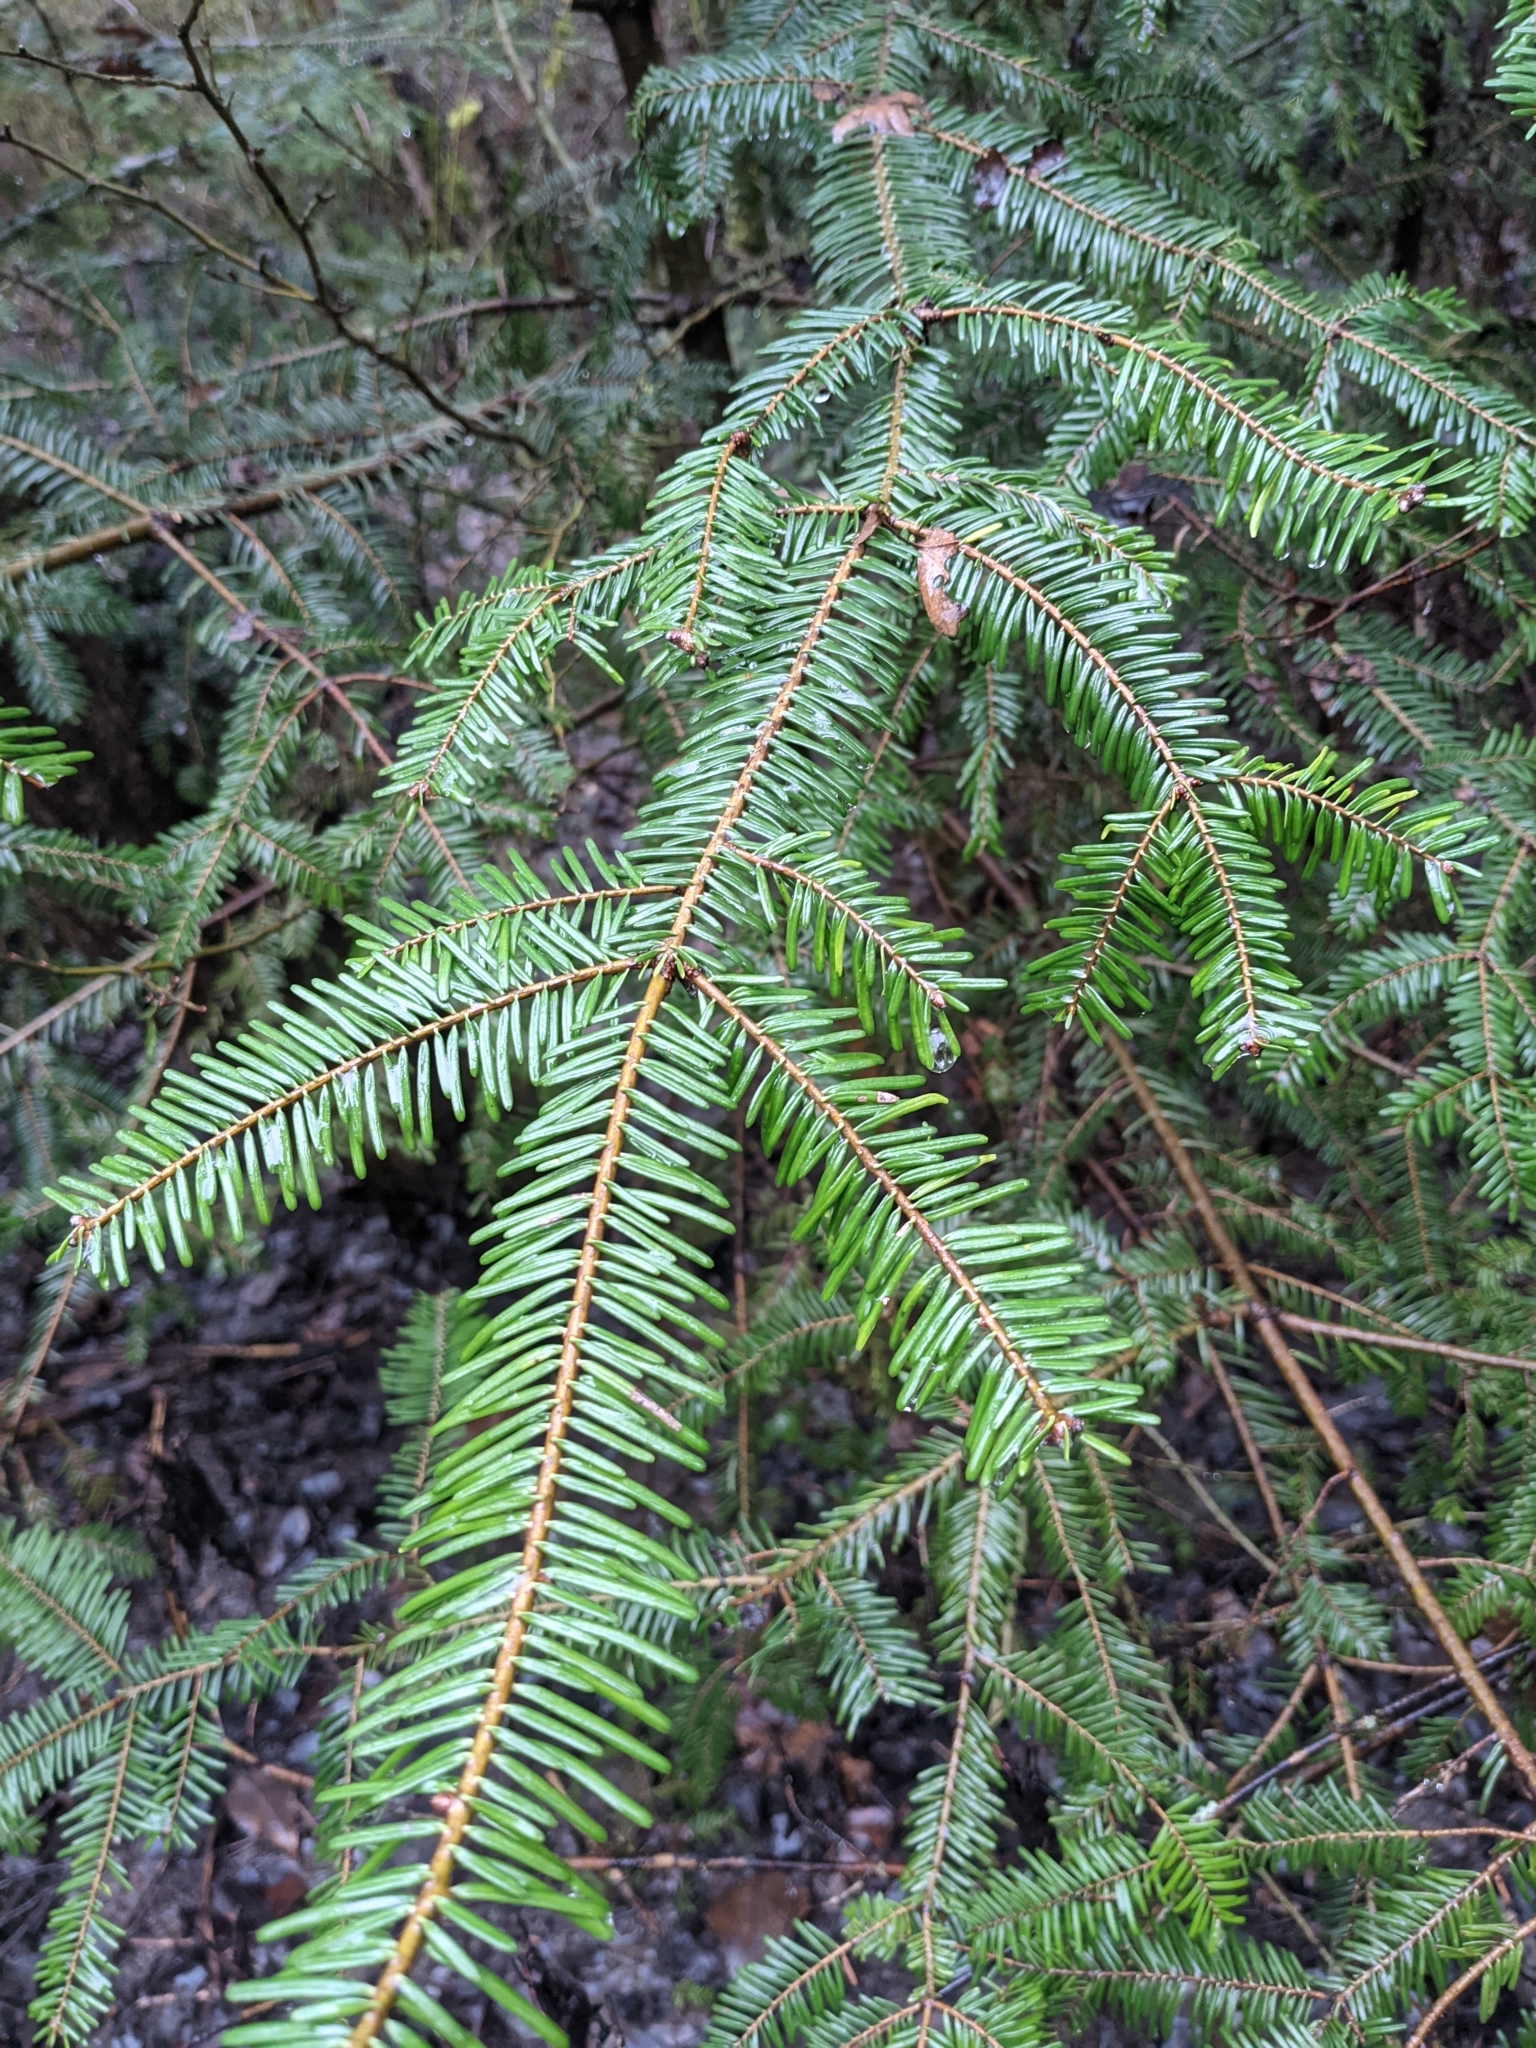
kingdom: Plantae
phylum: Tracheophyta
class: Pinopsida
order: Pinales
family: Pinaceae
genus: Abies
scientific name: Abies grandis
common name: Giant fir
